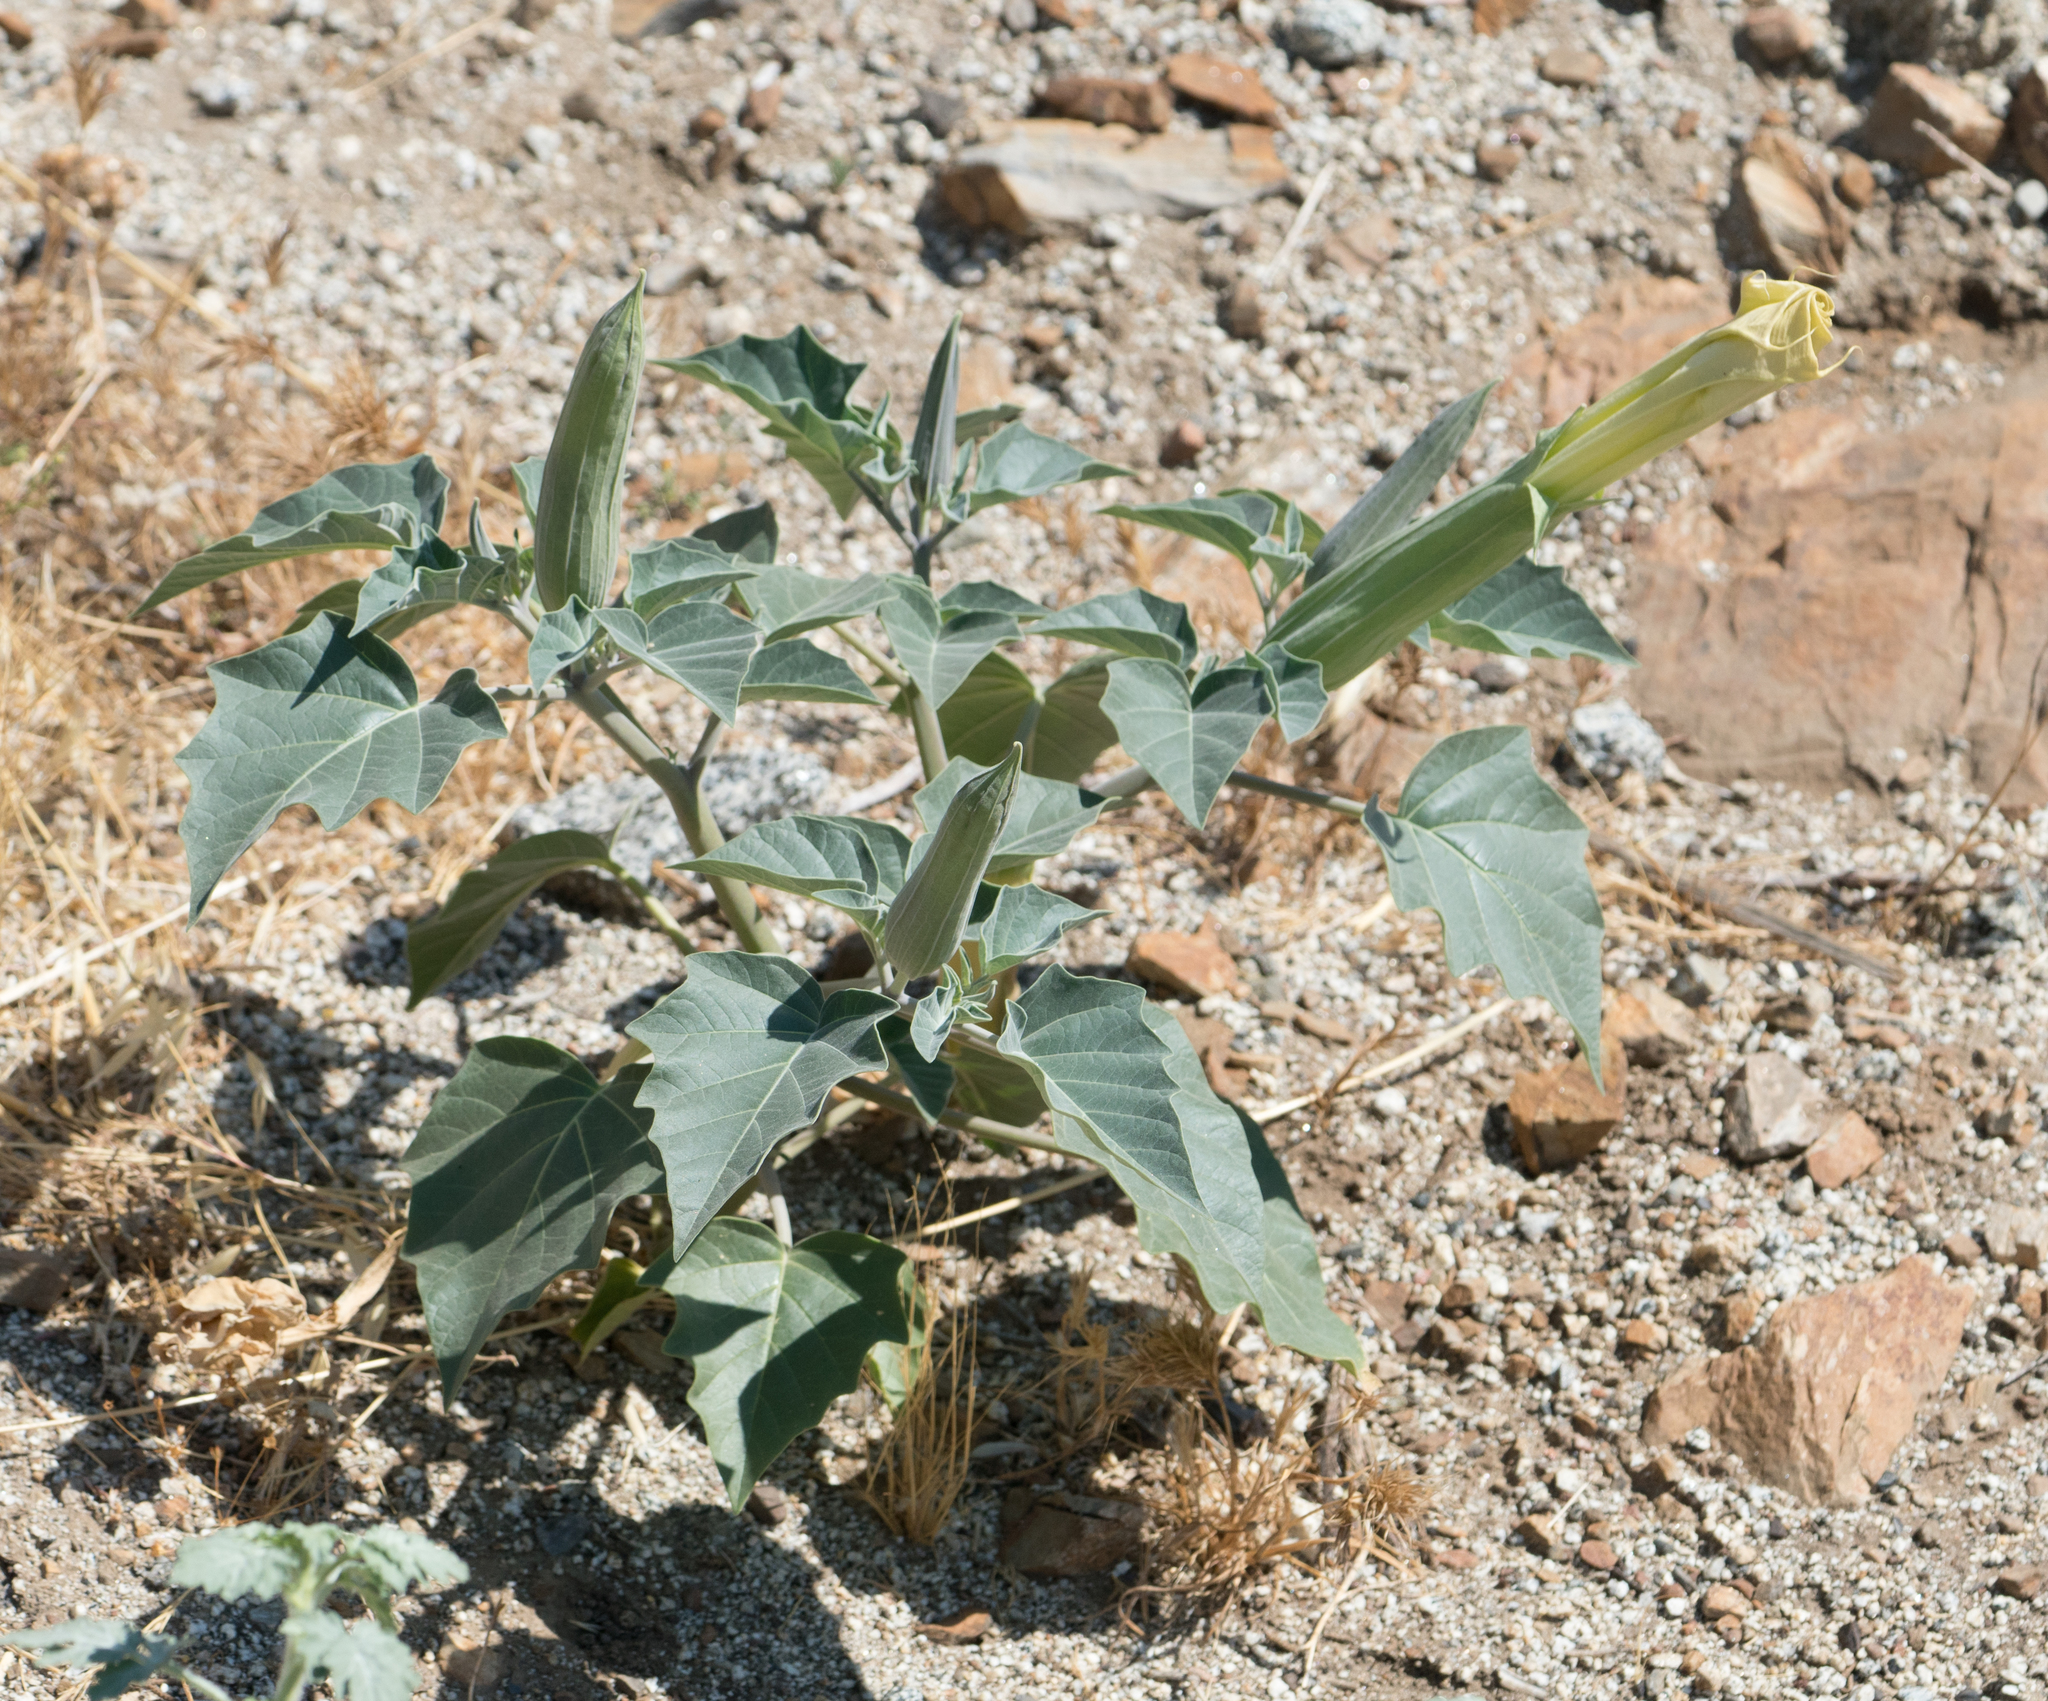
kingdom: Plantae
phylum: Tracheophyta
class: Magnoliopsida
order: Solanales
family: Solanaceae
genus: Datura
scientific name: Datura wrightii
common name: Sacred thorn-apple
